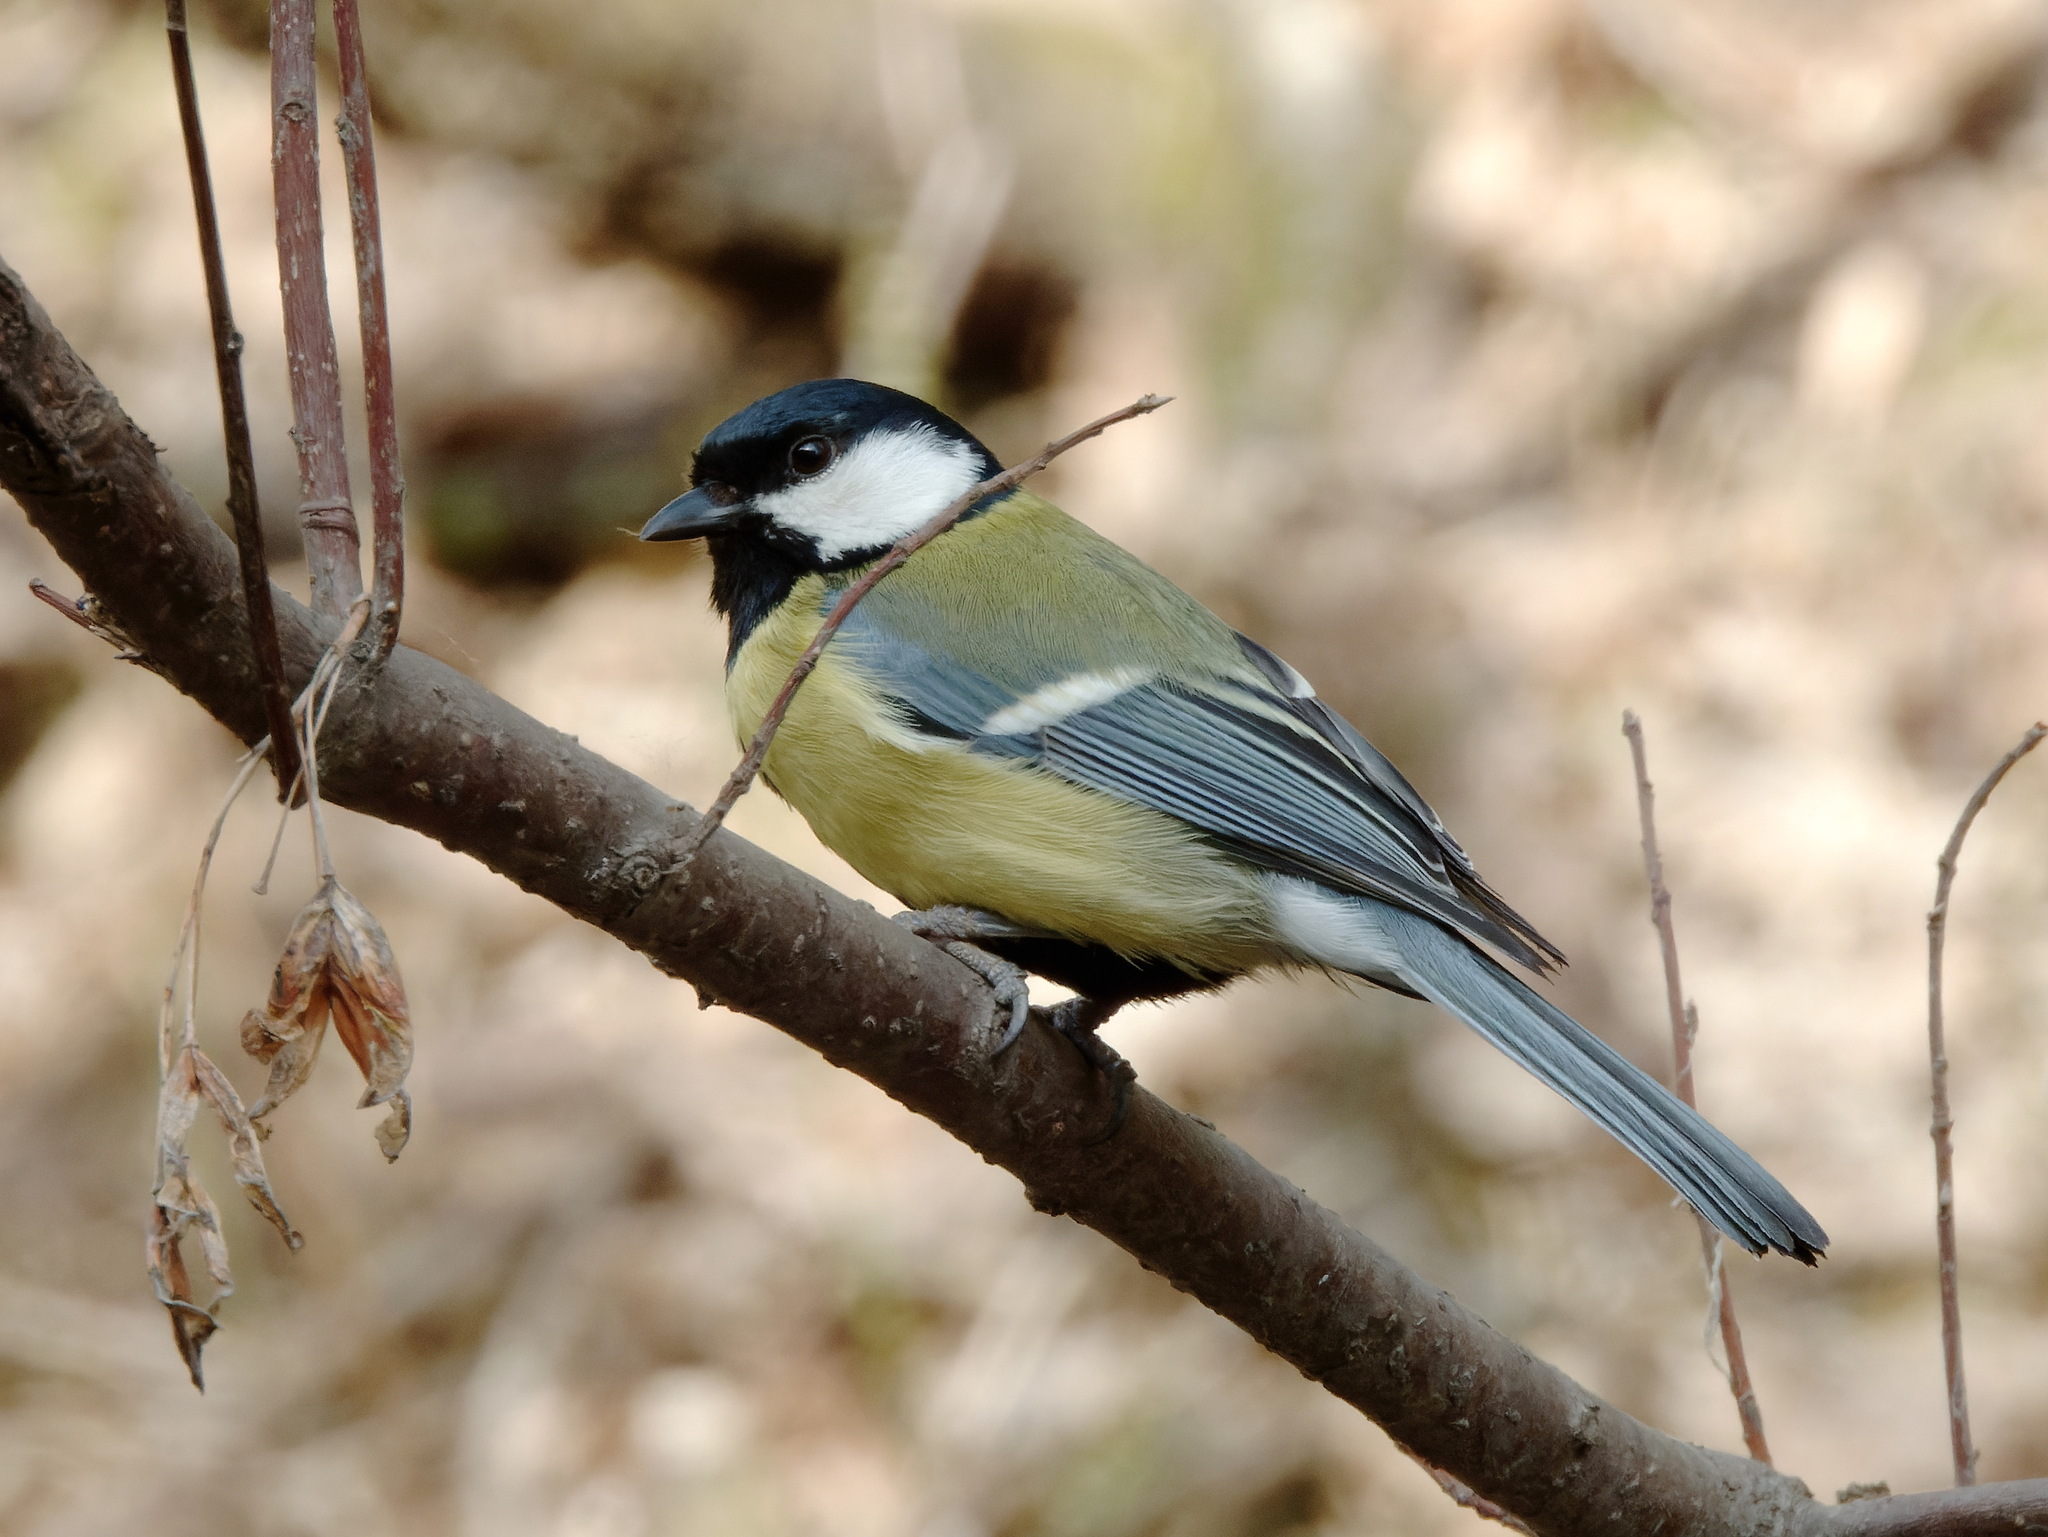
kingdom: Animalia
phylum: Chordata
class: Aves
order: Passeriformes
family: Paridae
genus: Parus
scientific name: Parus major
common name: Great tit
